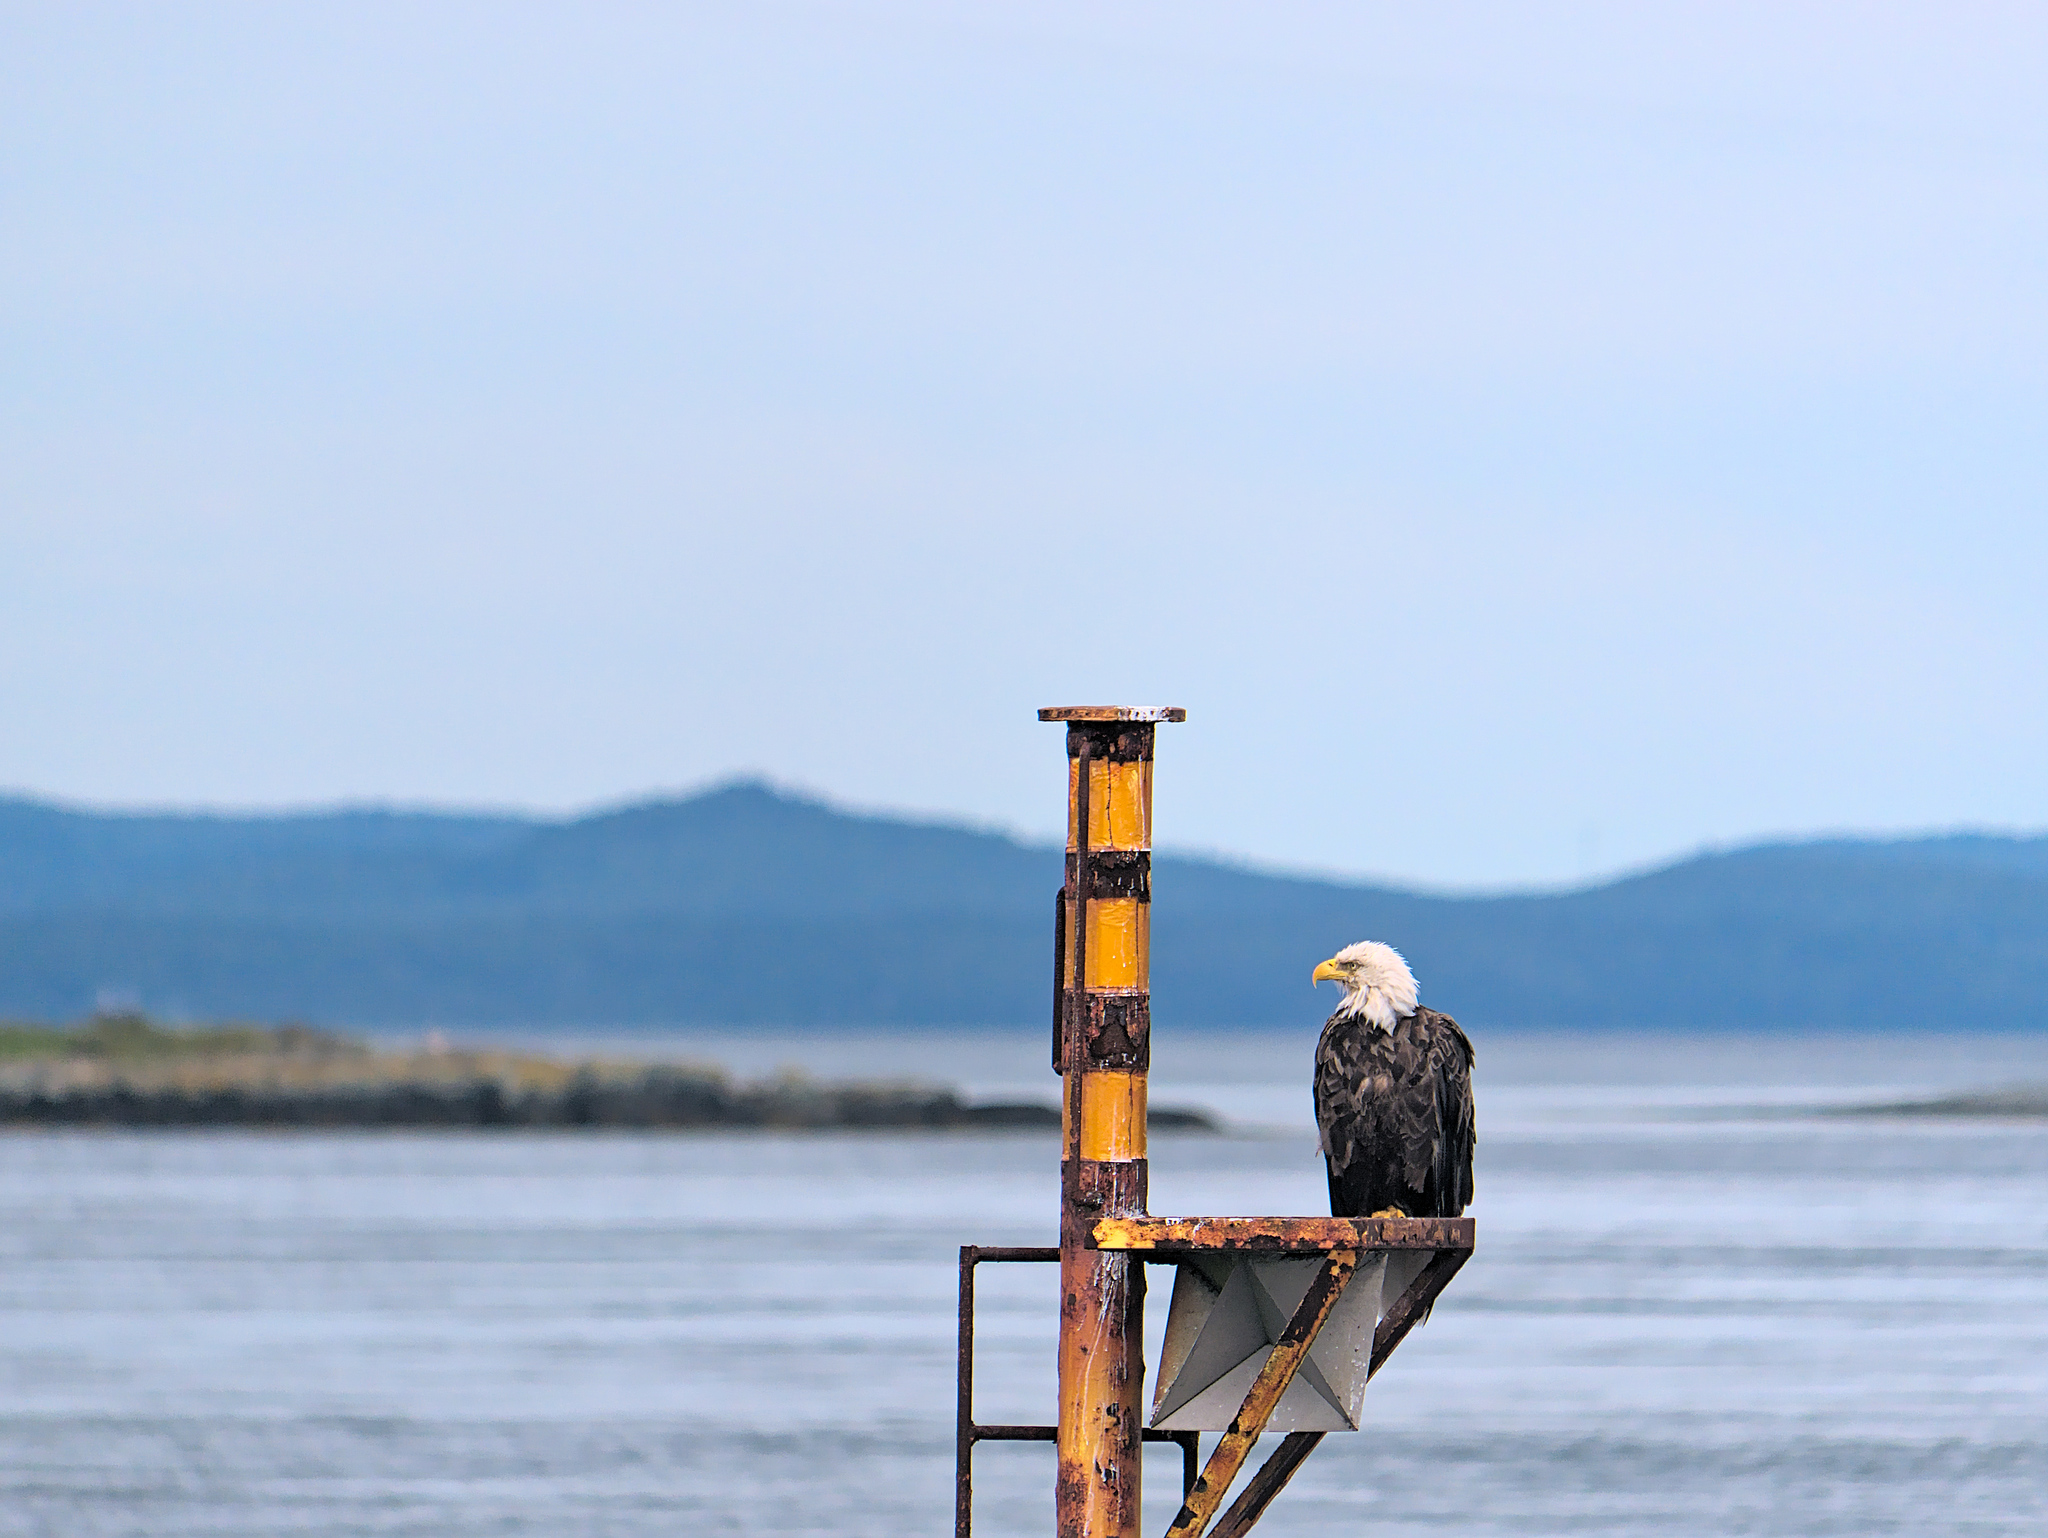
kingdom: Animalia
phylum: Chordata
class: Aves
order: Accipitriformes
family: Accipitridae
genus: Haliaeetus
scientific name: Haliaeetus leucocephalus
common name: Bald eagle
